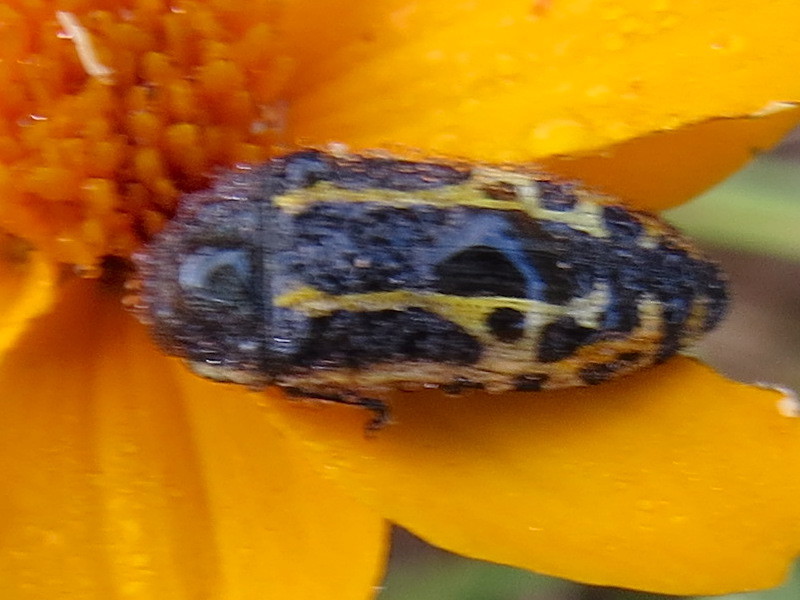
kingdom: Animalia
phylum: Arthropoda
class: Insecta
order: Coleoptera
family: Buprestidae
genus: Acmaeodera
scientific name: Acmaeodera scalaris
